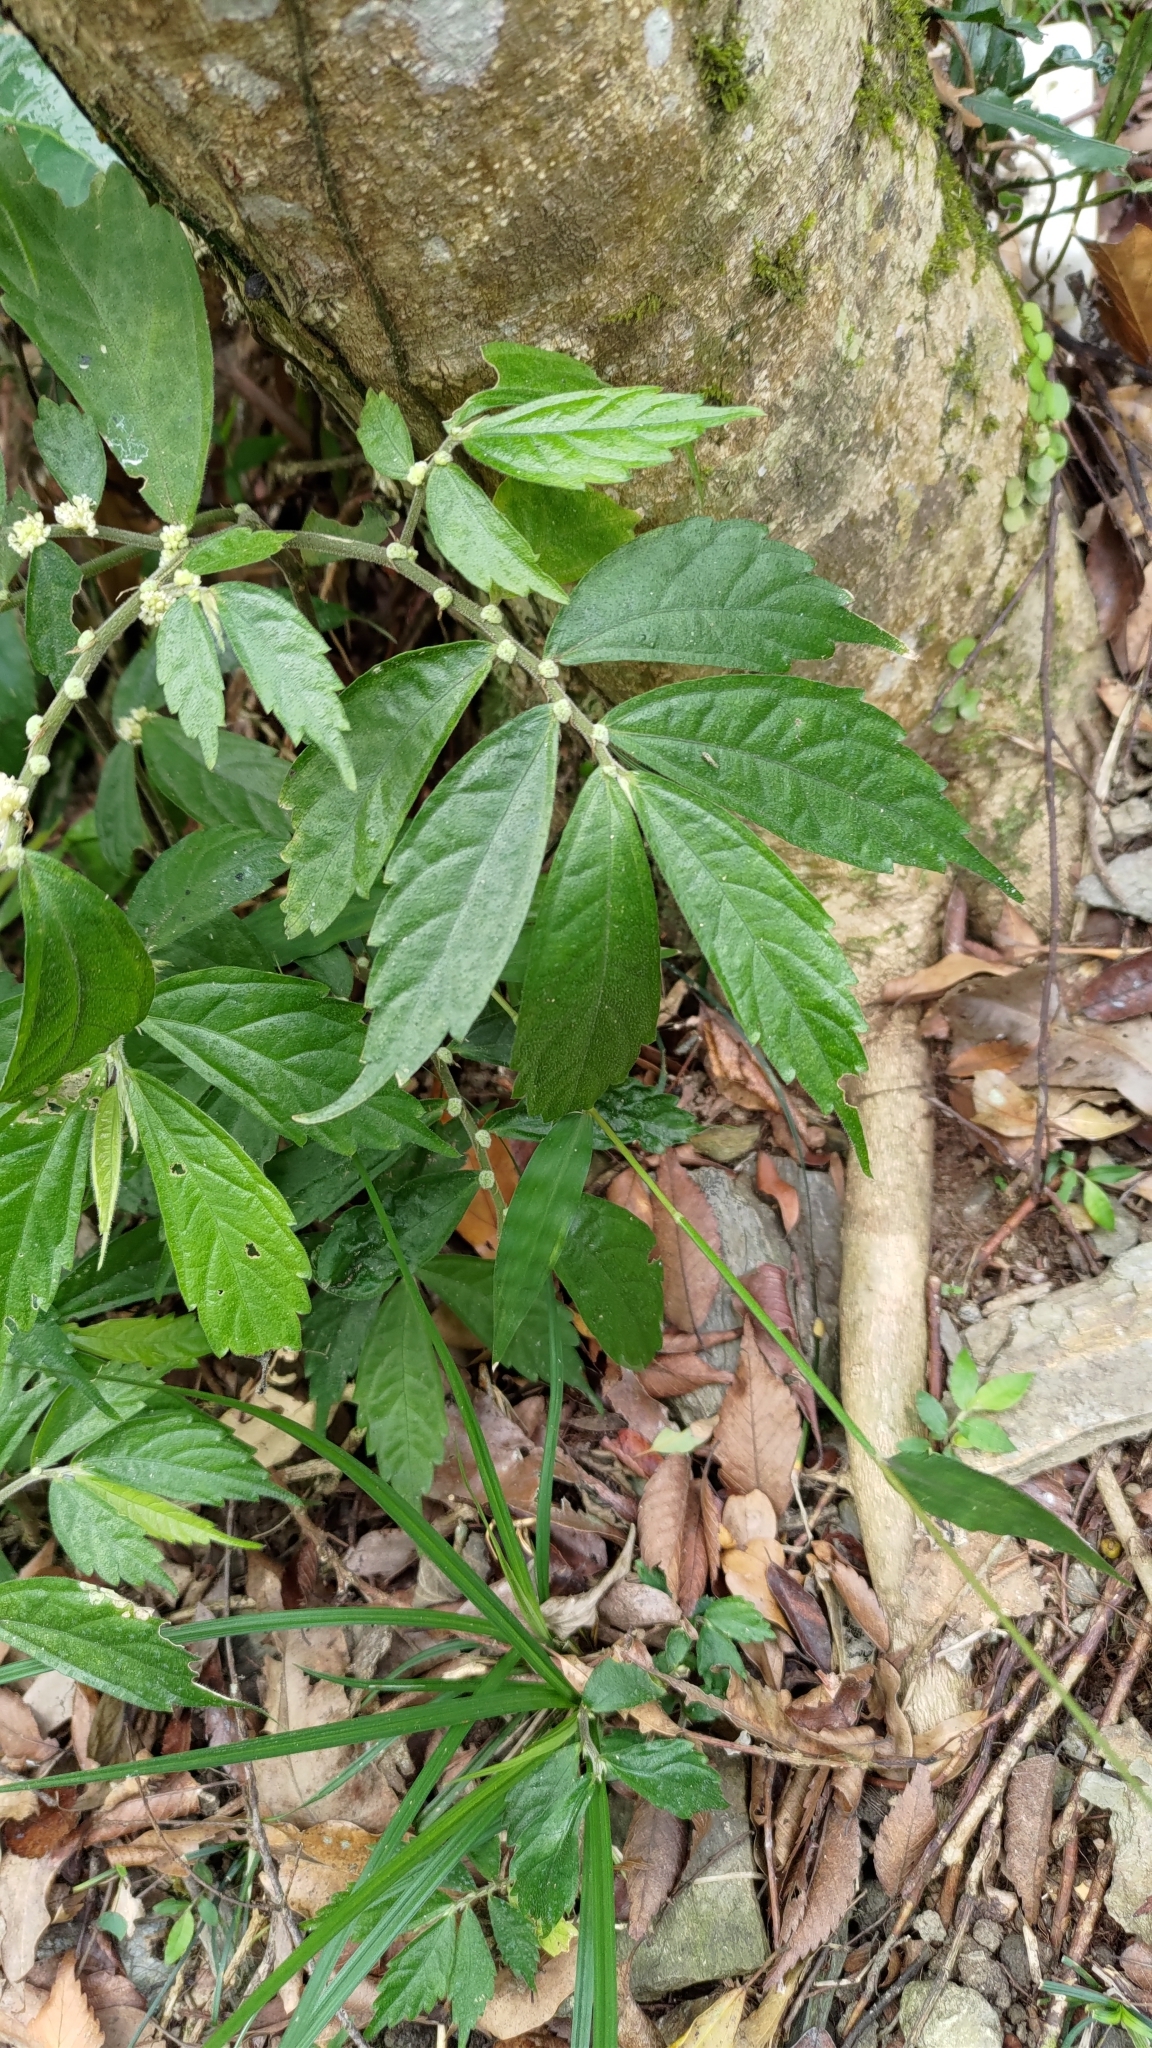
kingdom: Plantae
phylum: Tracheophyta
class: Magnoliopsida
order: Rosales
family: Urticaceae
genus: Elatostema
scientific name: Elatostema lineolatum
